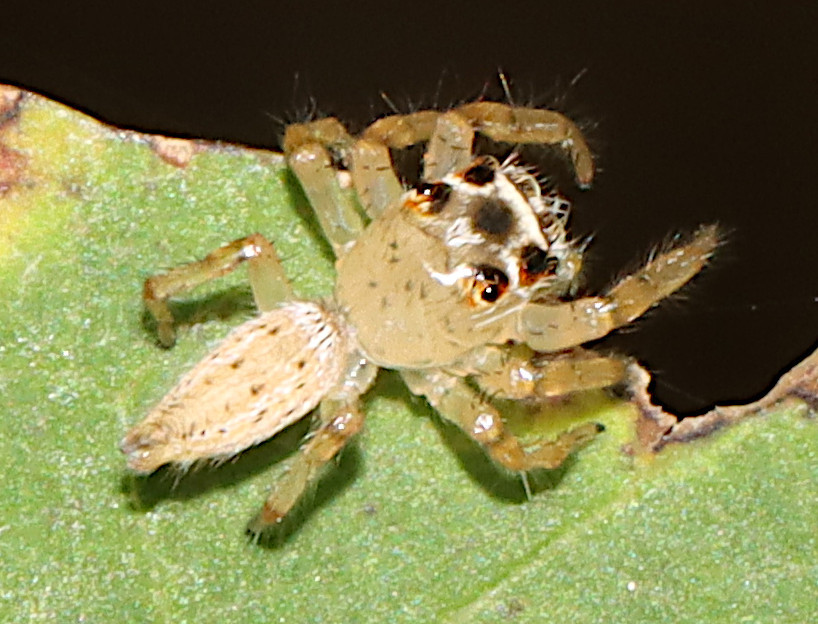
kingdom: Animalia
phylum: Arthropoda
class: Arachnida
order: Araneae
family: Salticidae
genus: Colonus
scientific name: Colonus sylvanus
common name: Jumping spiders
